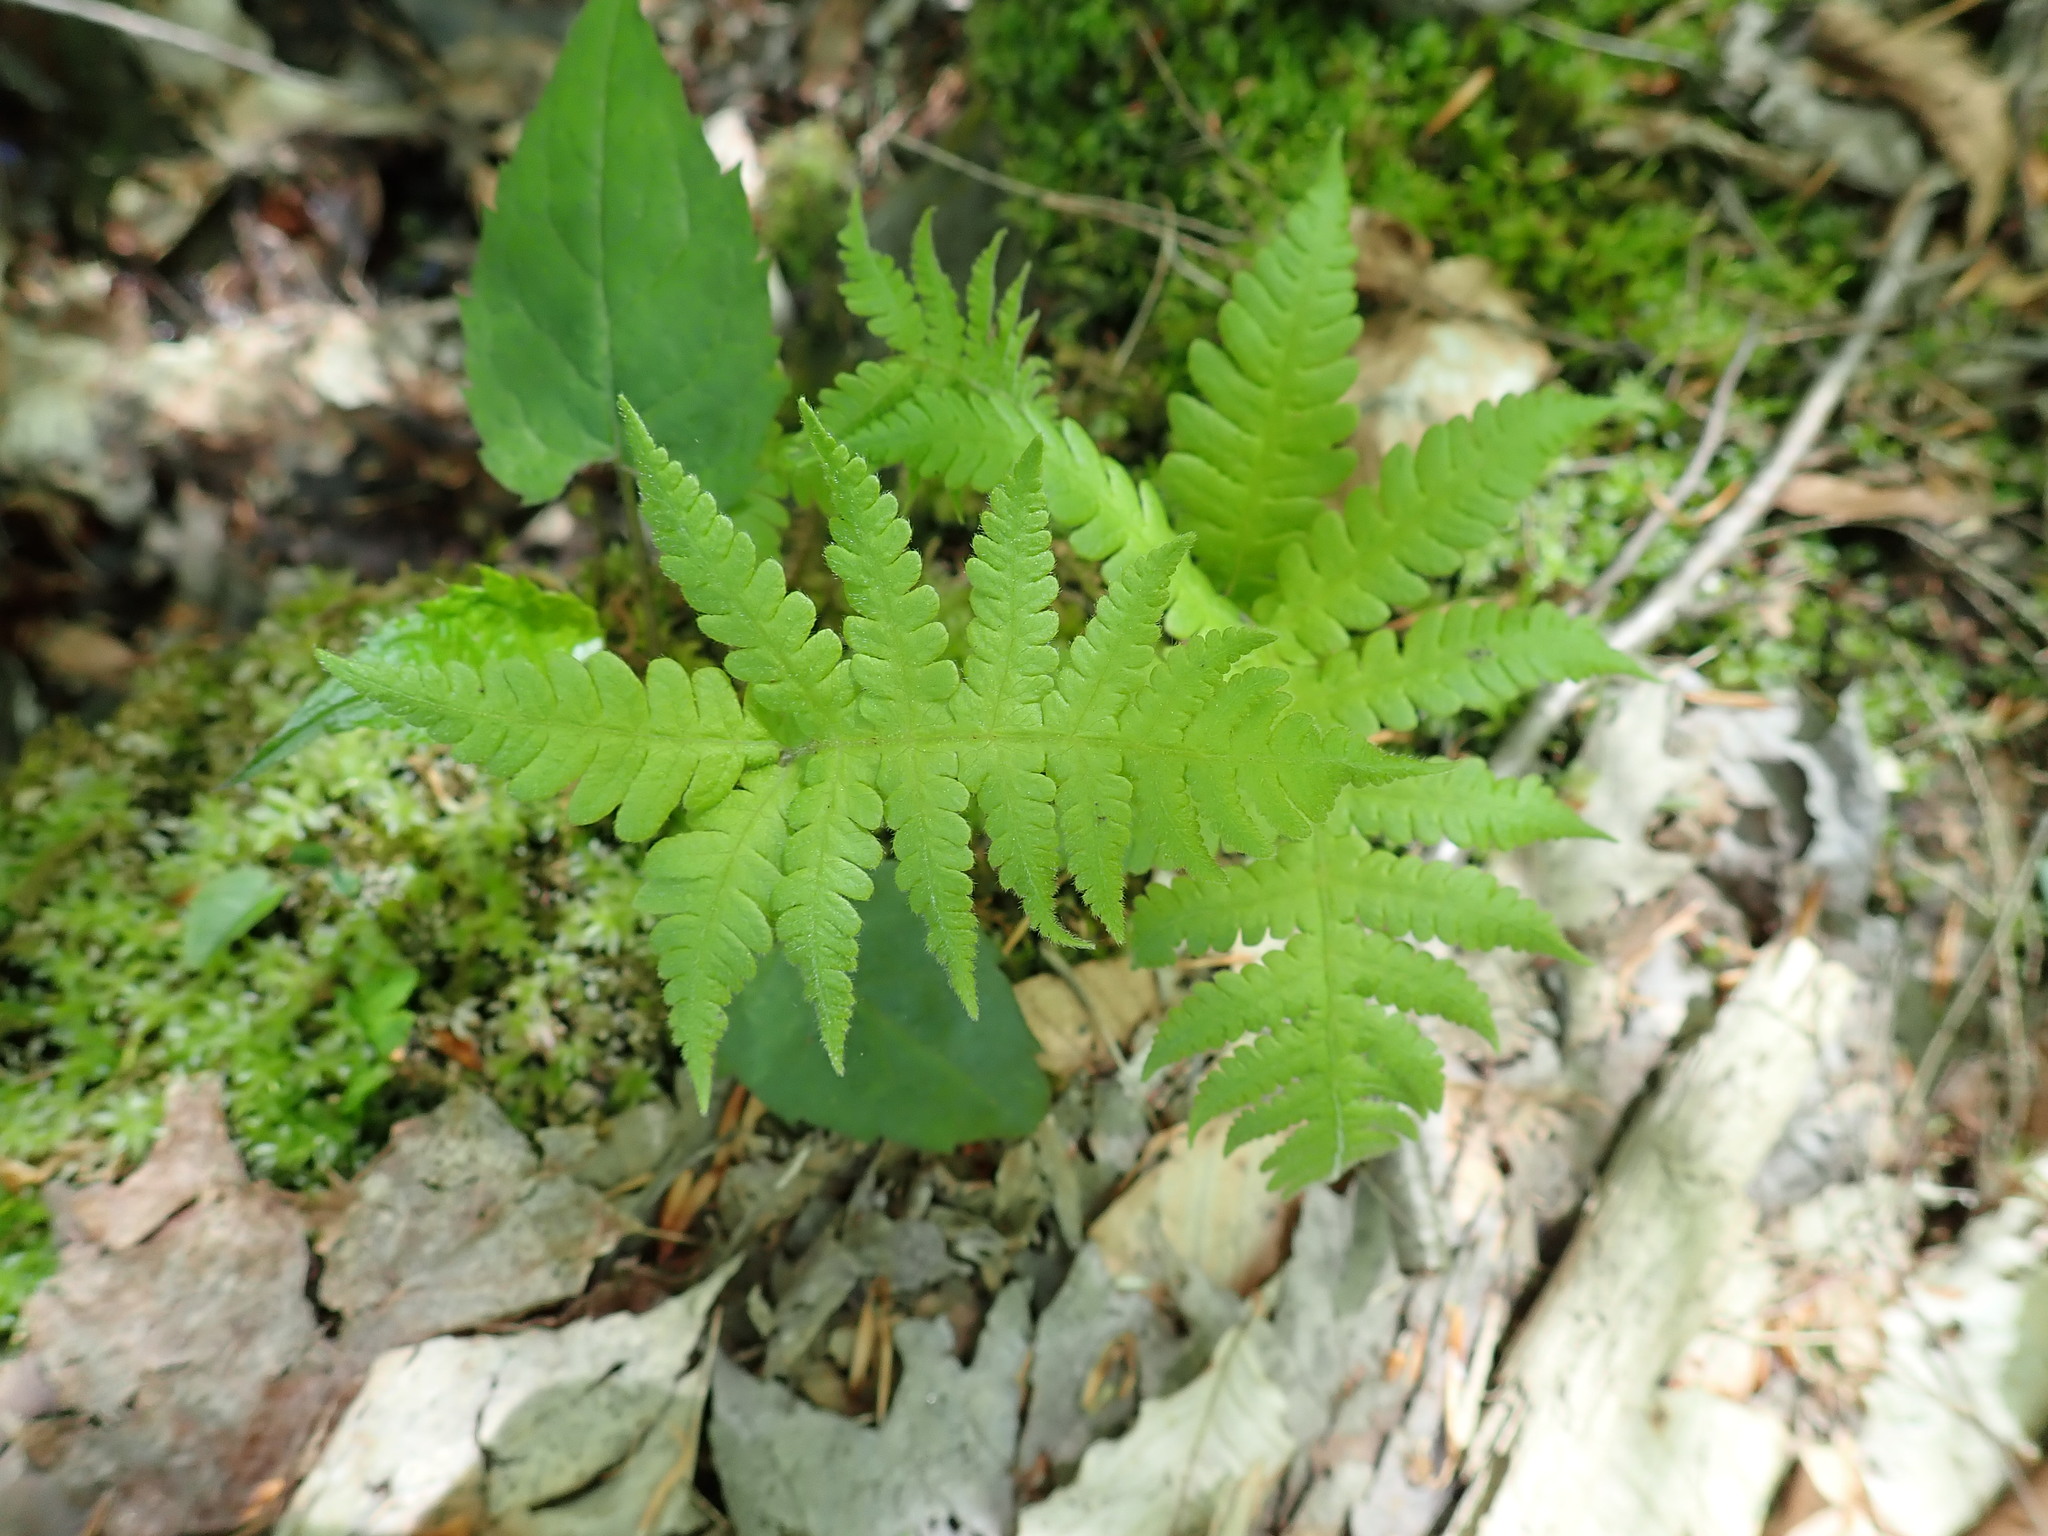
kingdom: Plantae
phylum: Tracheophyta
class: Polypodiopsida
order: Polypodiales
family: Thelypteridaceae
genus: Phegopteris
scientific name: Phegopteris connectilis
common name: Beech fern
